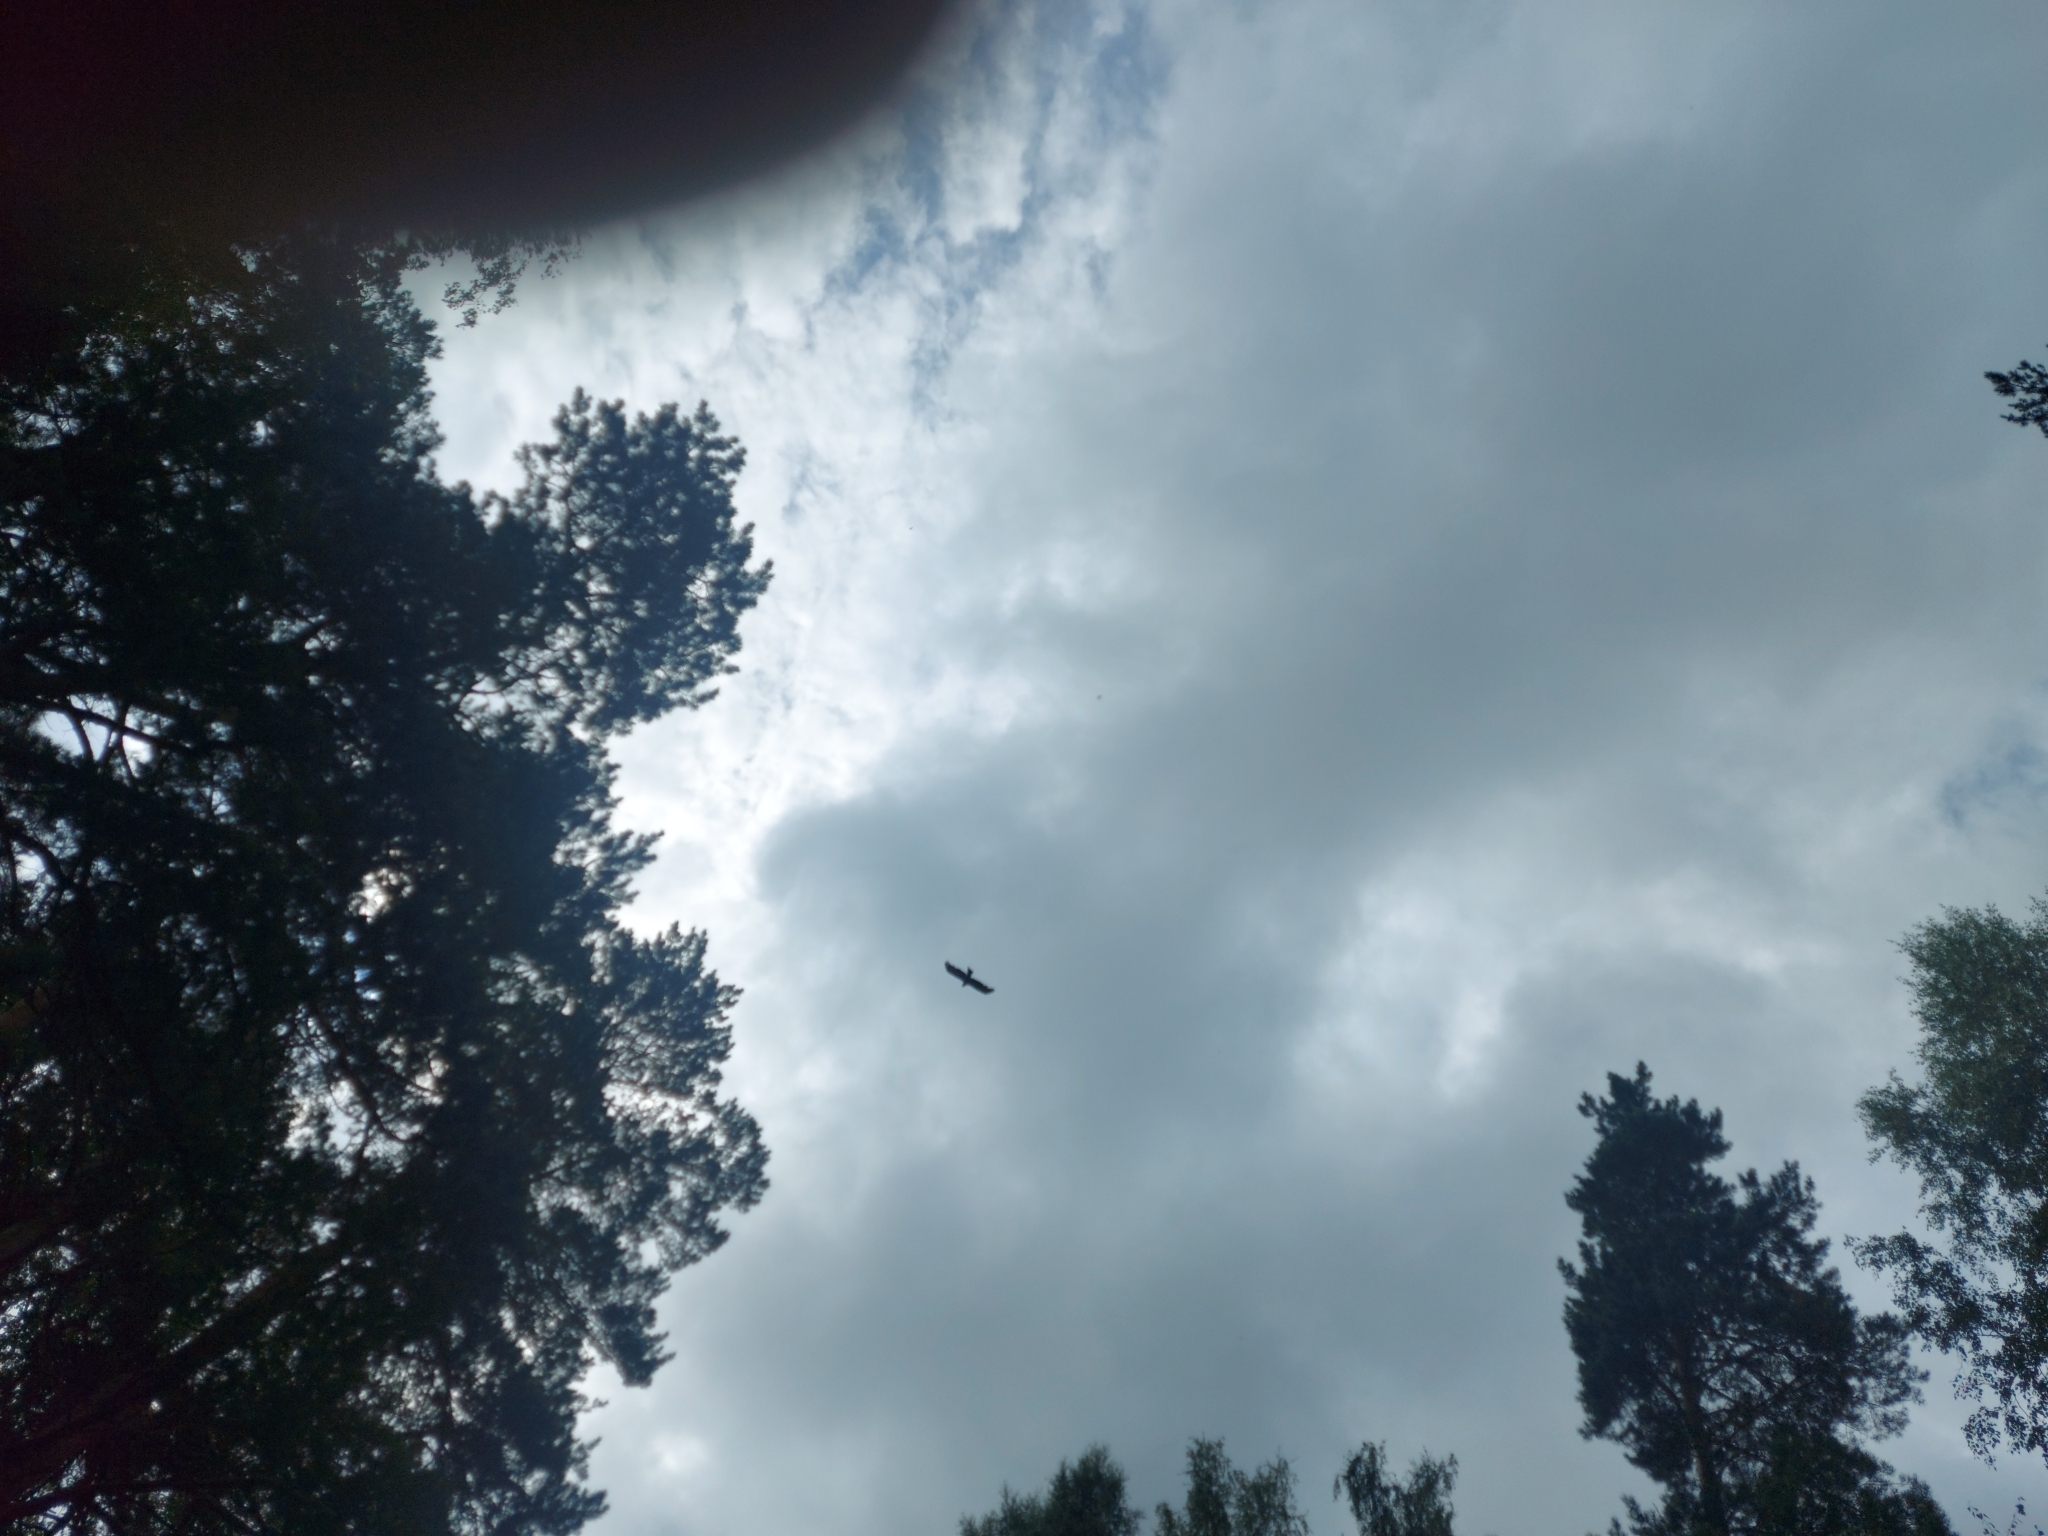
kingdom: Animalia
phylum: Chordata
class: Aves
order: Accipitriformes
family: Accipitridae
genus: Milvus
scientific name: Milvus migrans
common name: Black kite
